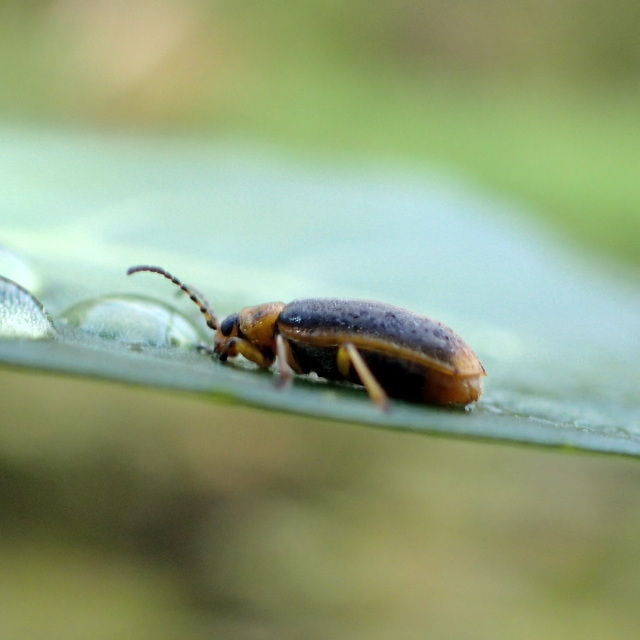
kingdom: Animalia
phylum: Arthropoda
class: Insecta
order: Coleoptera
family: Chrysomelidae
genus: Galerucella
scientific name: Galerucella nymphaeae
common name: Leaf beetle
